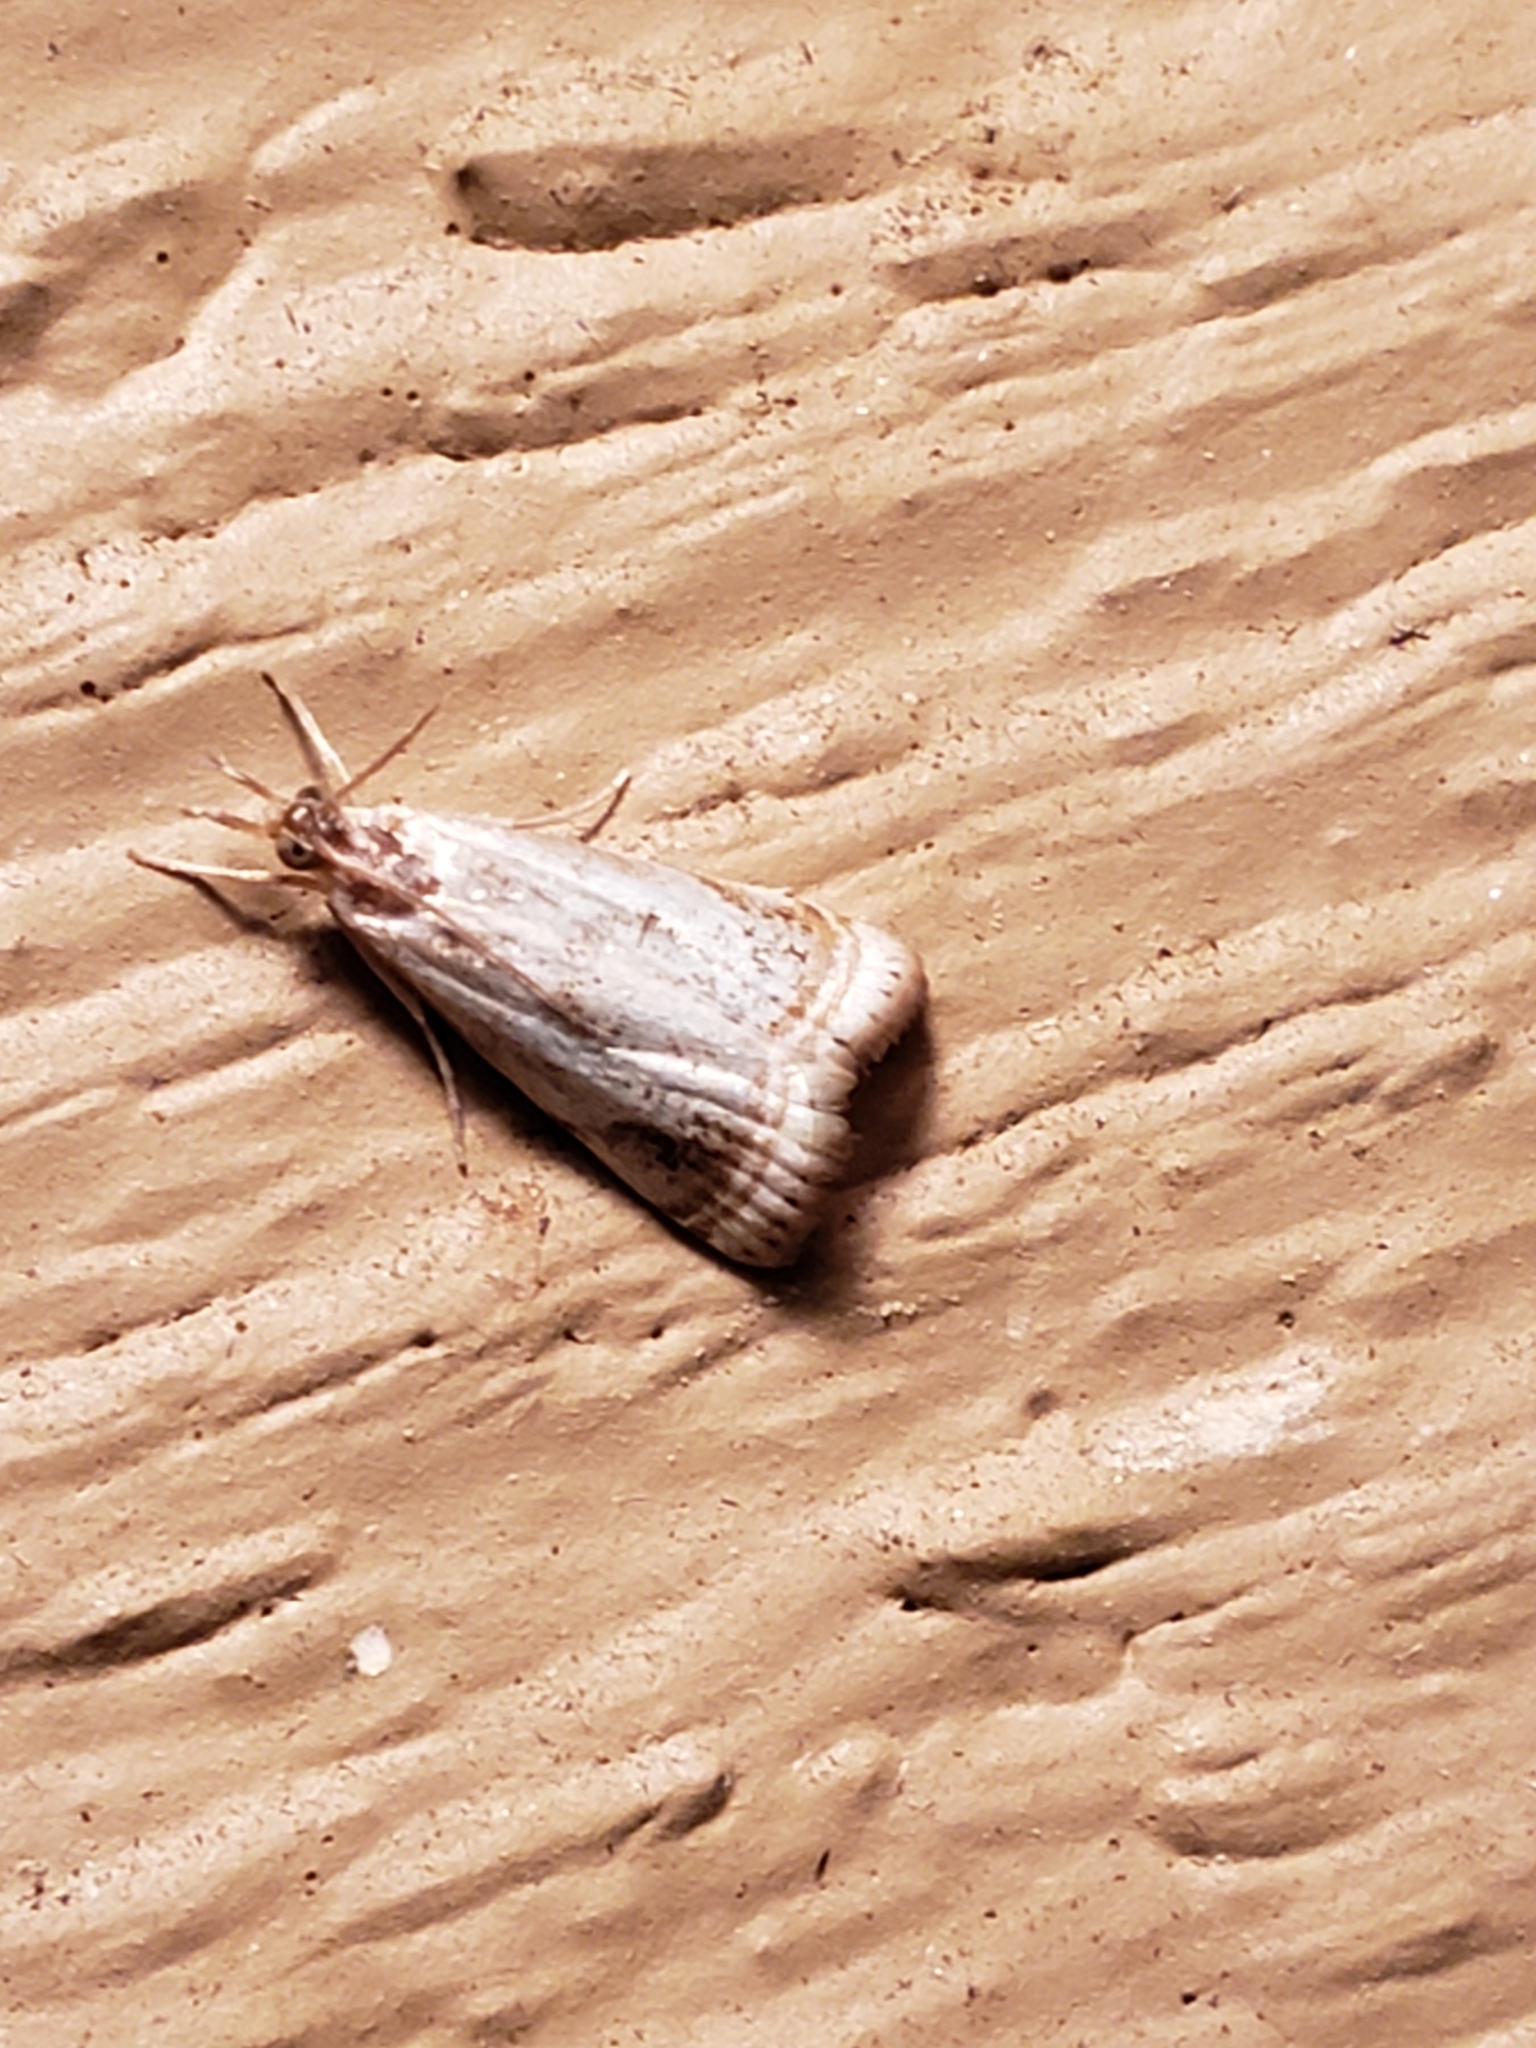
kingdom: Animalia
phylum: Arthropoda
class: Insecta
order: Lepidoptera
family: Crambidae
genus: Microcrambus
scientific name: Microcrambus elegans
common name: Elegant grass-veneer
